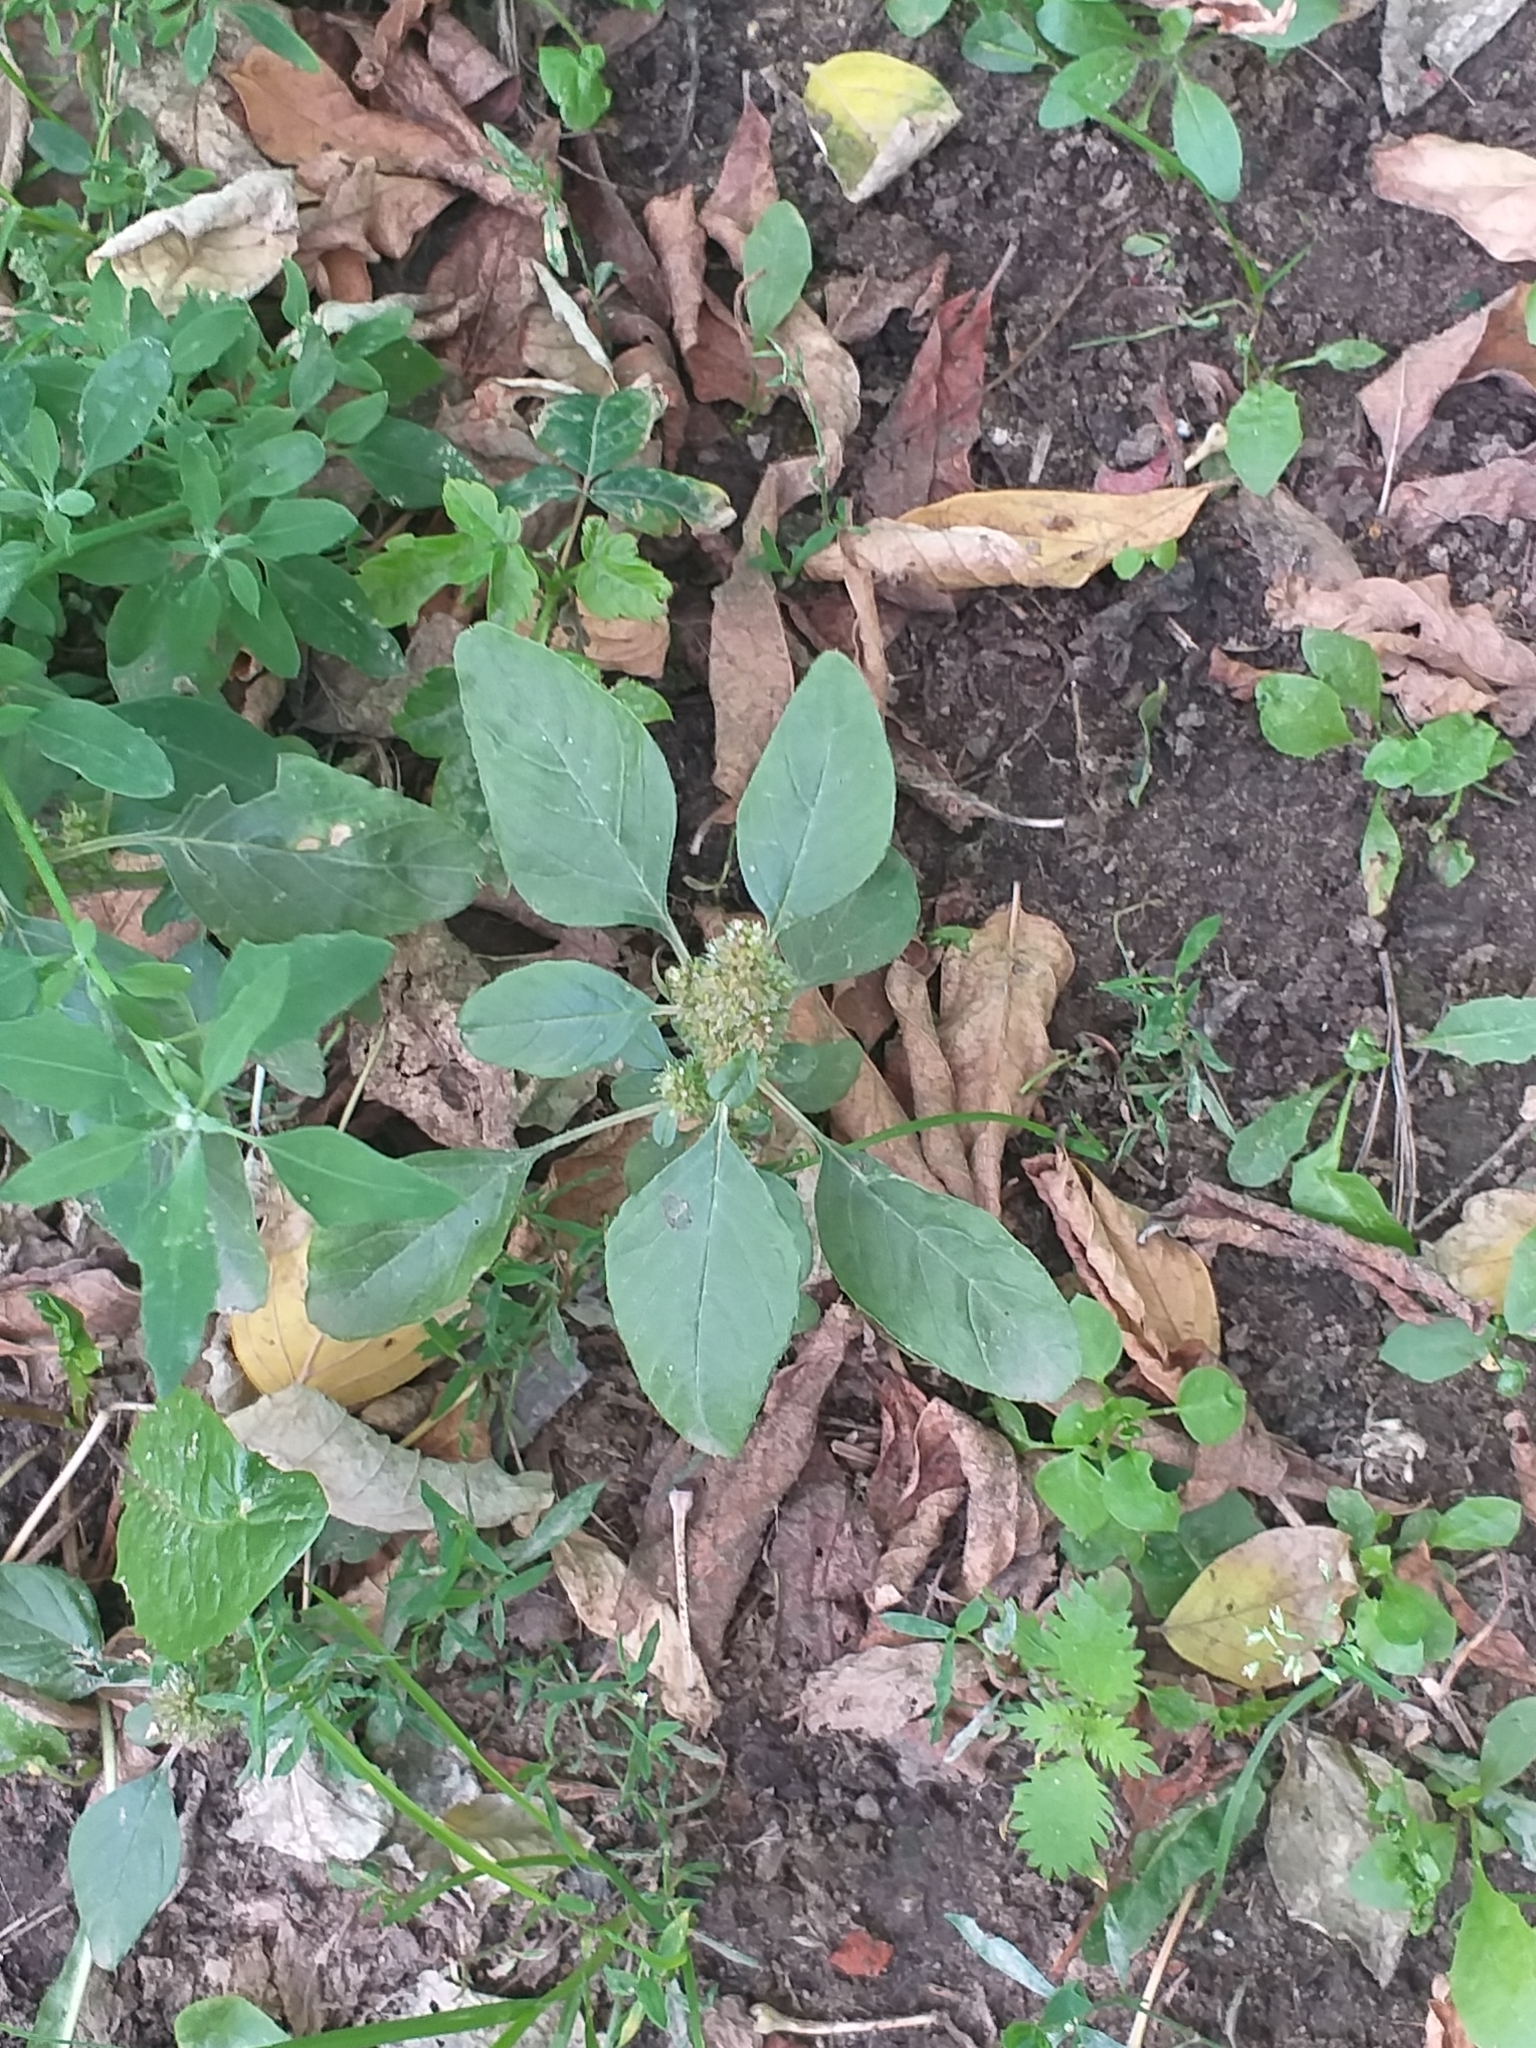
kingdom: Plantae
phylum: Tracheophyta
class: Magnoliopsida
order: Caryophyllales
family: Amaranthaceae
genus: Amaranthus
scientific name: Amaranthus retroflexus
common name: Redroot amaranth
